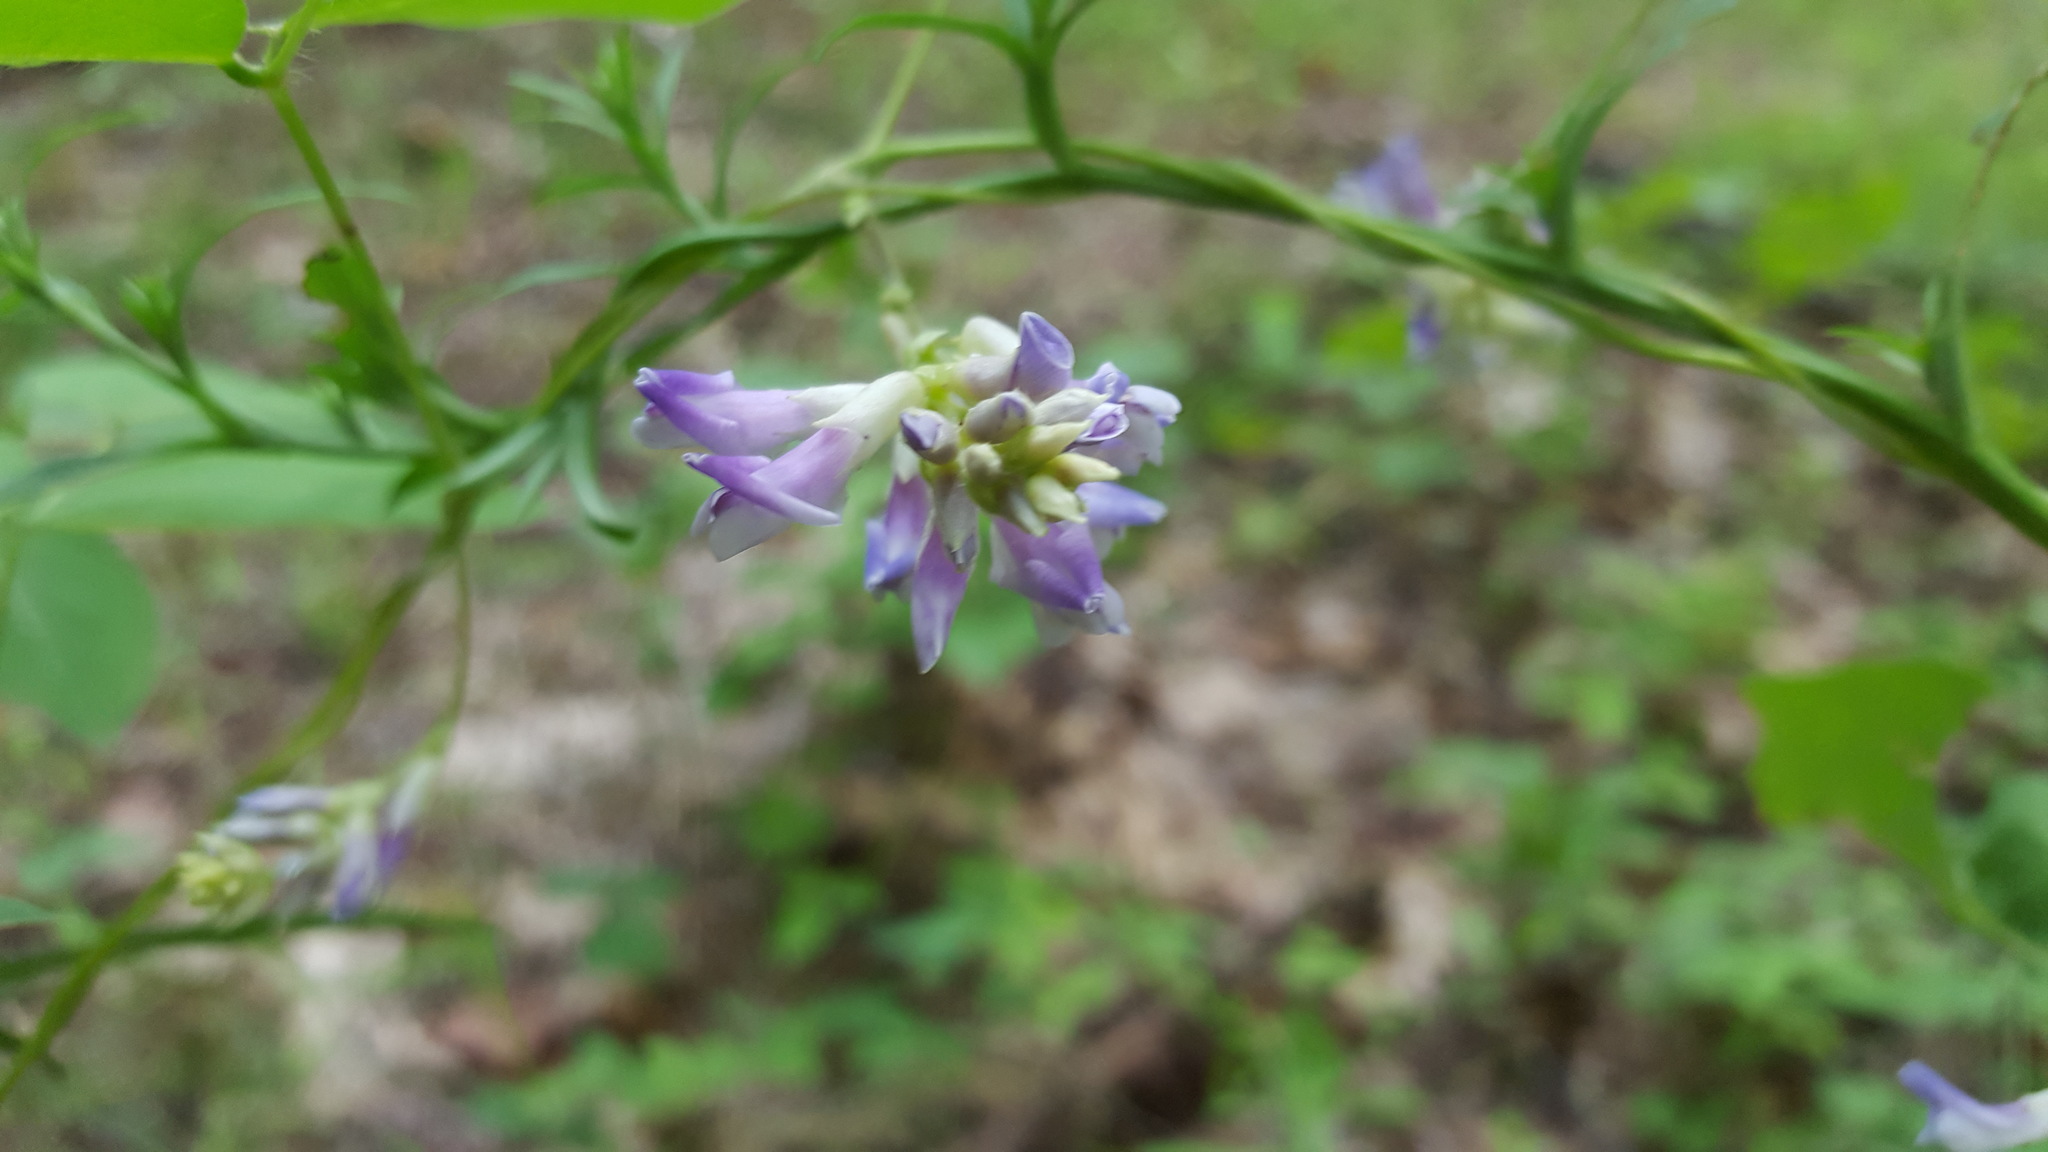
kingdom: Plantae
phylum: Tracheophyta
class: Magnoliopsida
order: Fabales
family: Fabaceae
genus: Amphicarpaea
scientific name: Amphicarpaea bracteata
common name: American hog peanut
